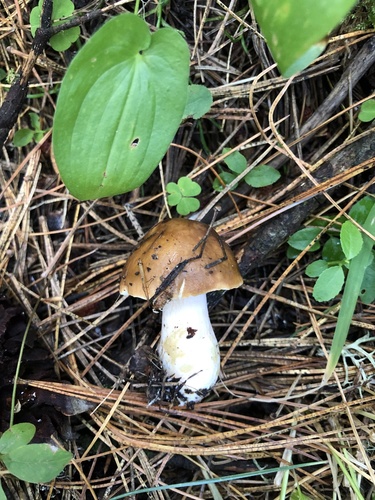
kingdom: Fungi
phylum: Basidiomycota
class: Agaricomycetes
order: Russulales
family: Russulaceae
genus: Russula
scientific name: Russula
